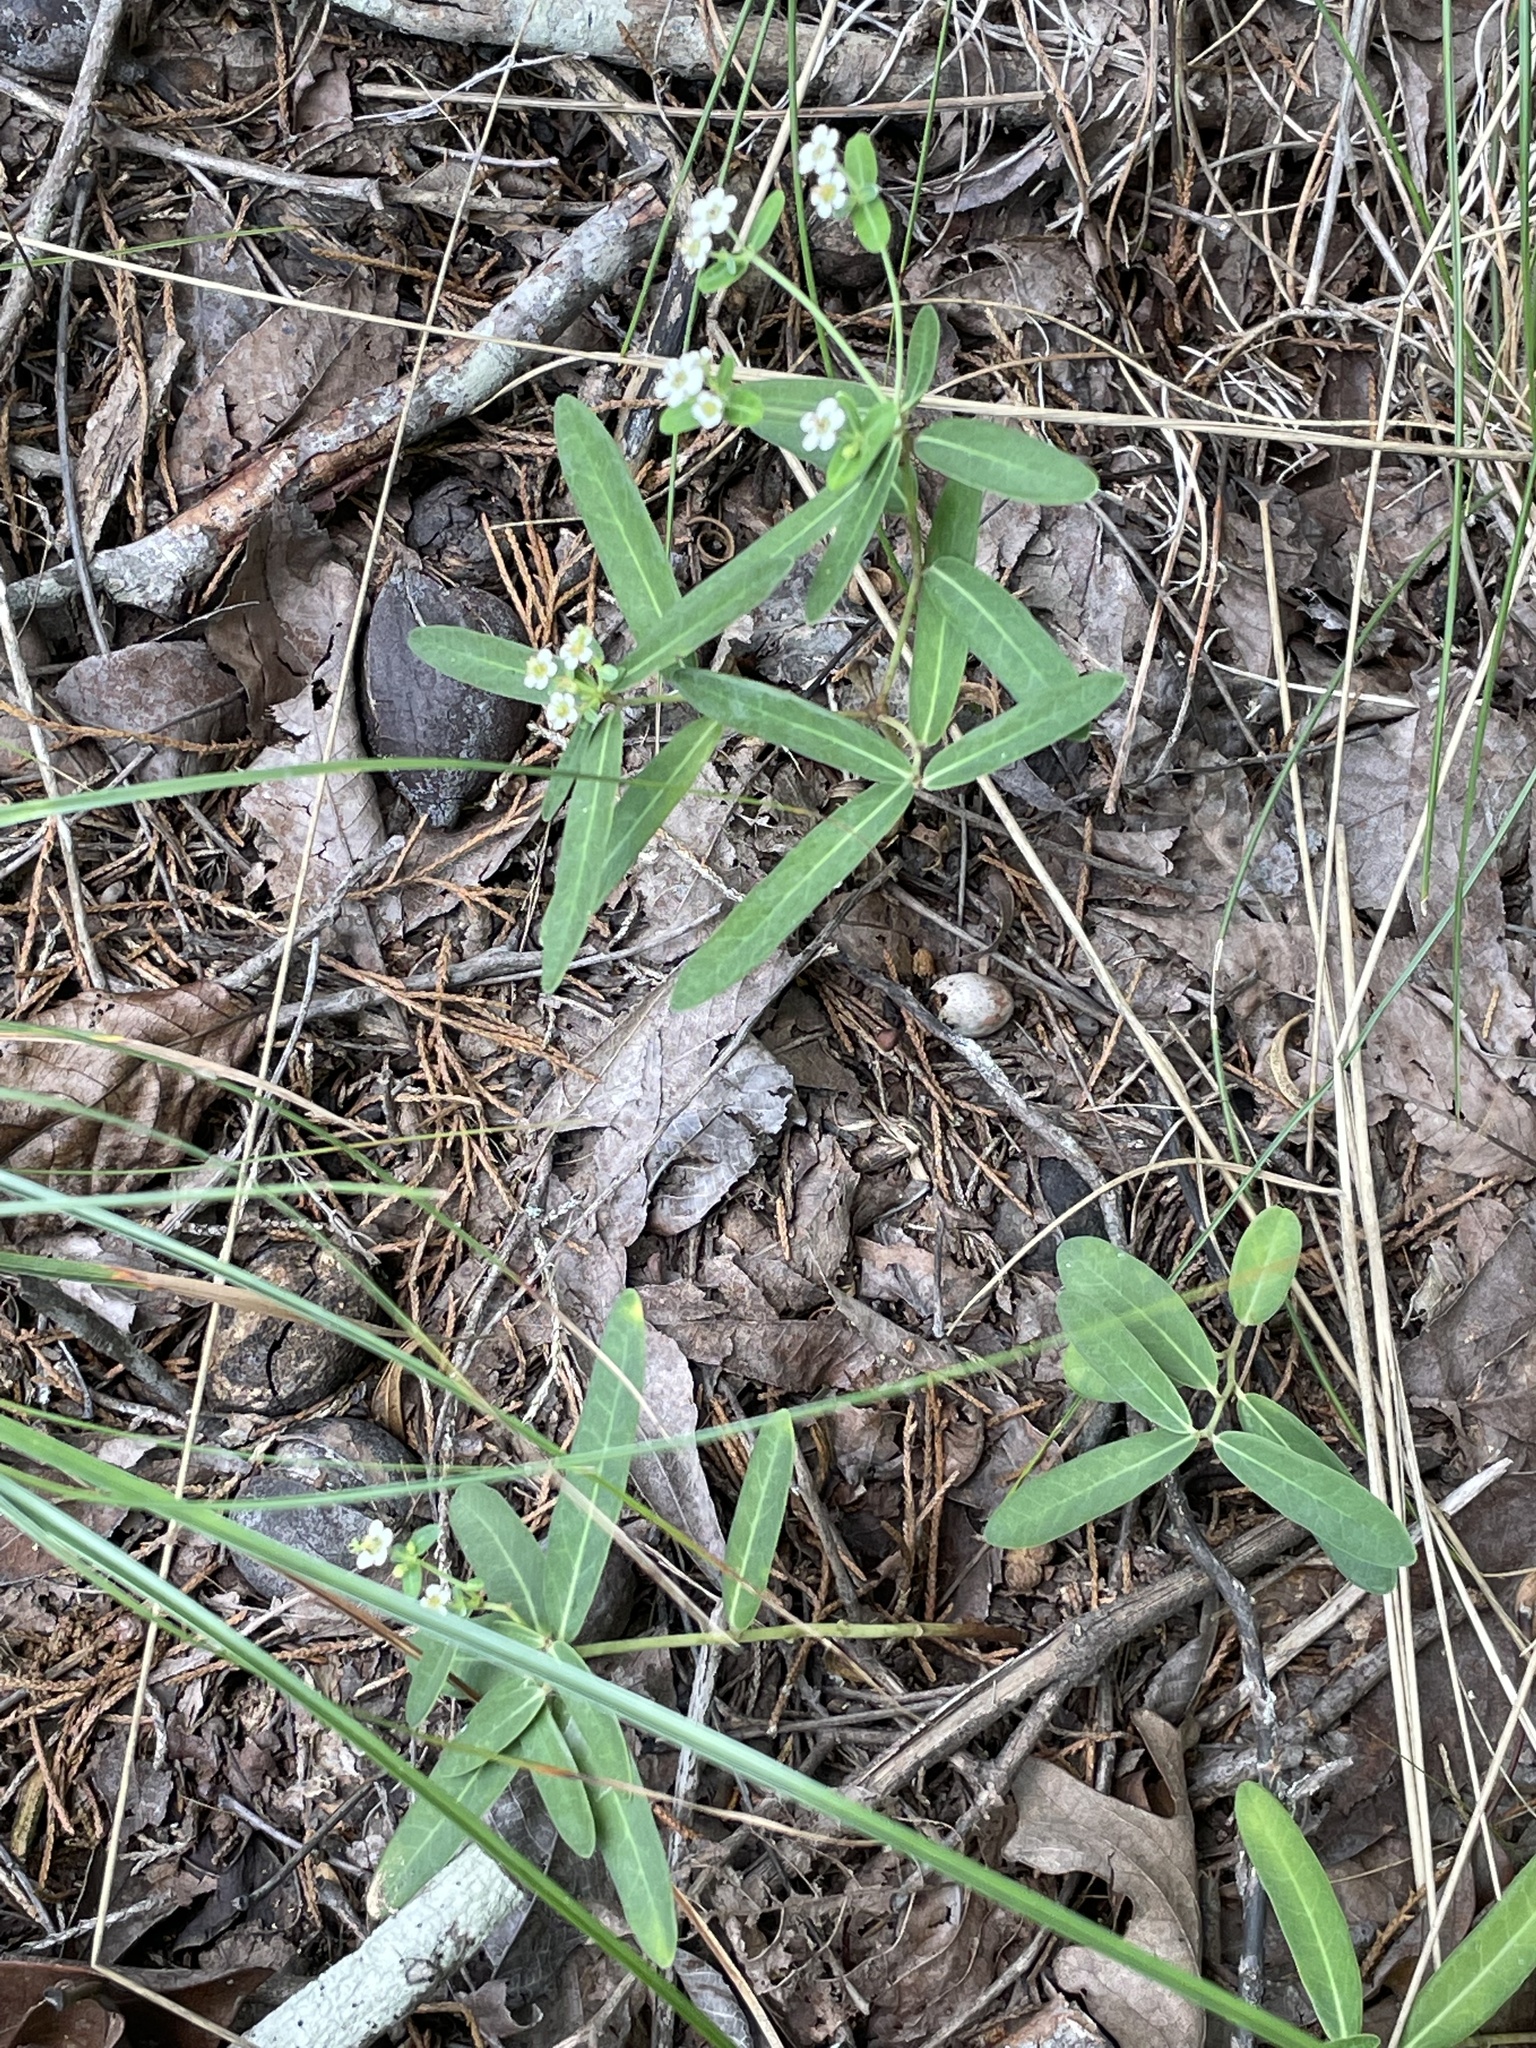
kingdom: Plantae
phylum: Tracheophyta
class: Magnoliopsida
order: Malpighiales
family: Euphorbiaceae
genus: Euphorbia
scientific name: Euphorbia corollata
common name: Flowering spurge
